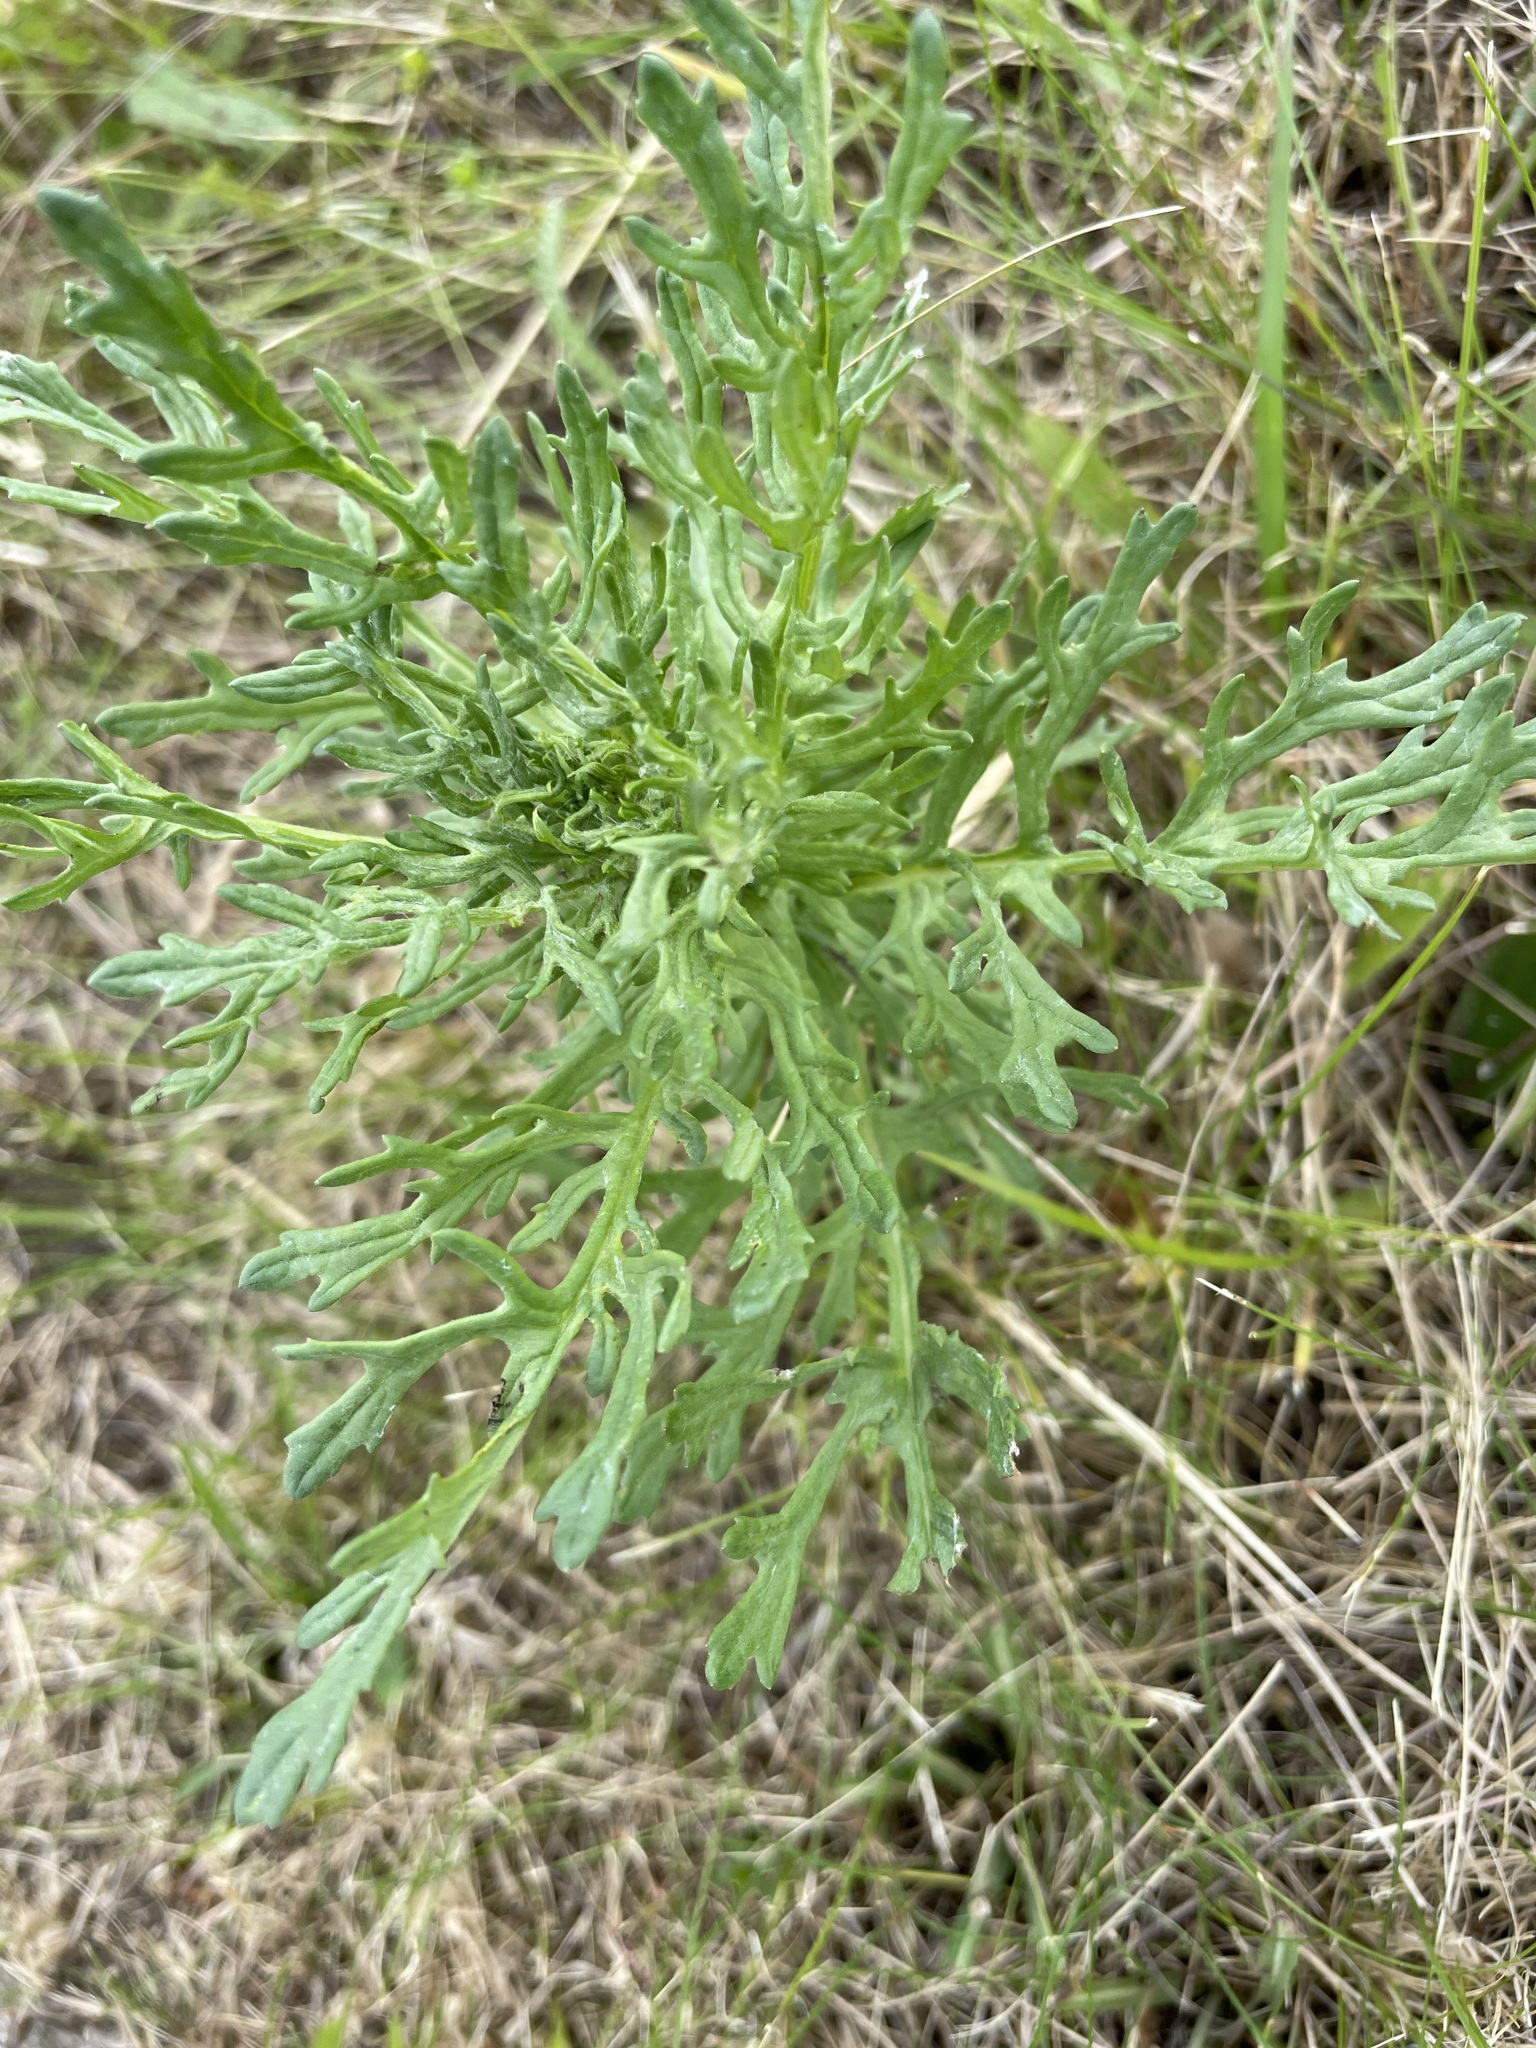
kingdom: Plantae
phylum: Tracheophyta
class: Magnoliopsida
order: Asterales
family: Asteraceae
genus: Jacobaea
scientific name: Jacobaea erucifolia
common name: Hoary ragwort
